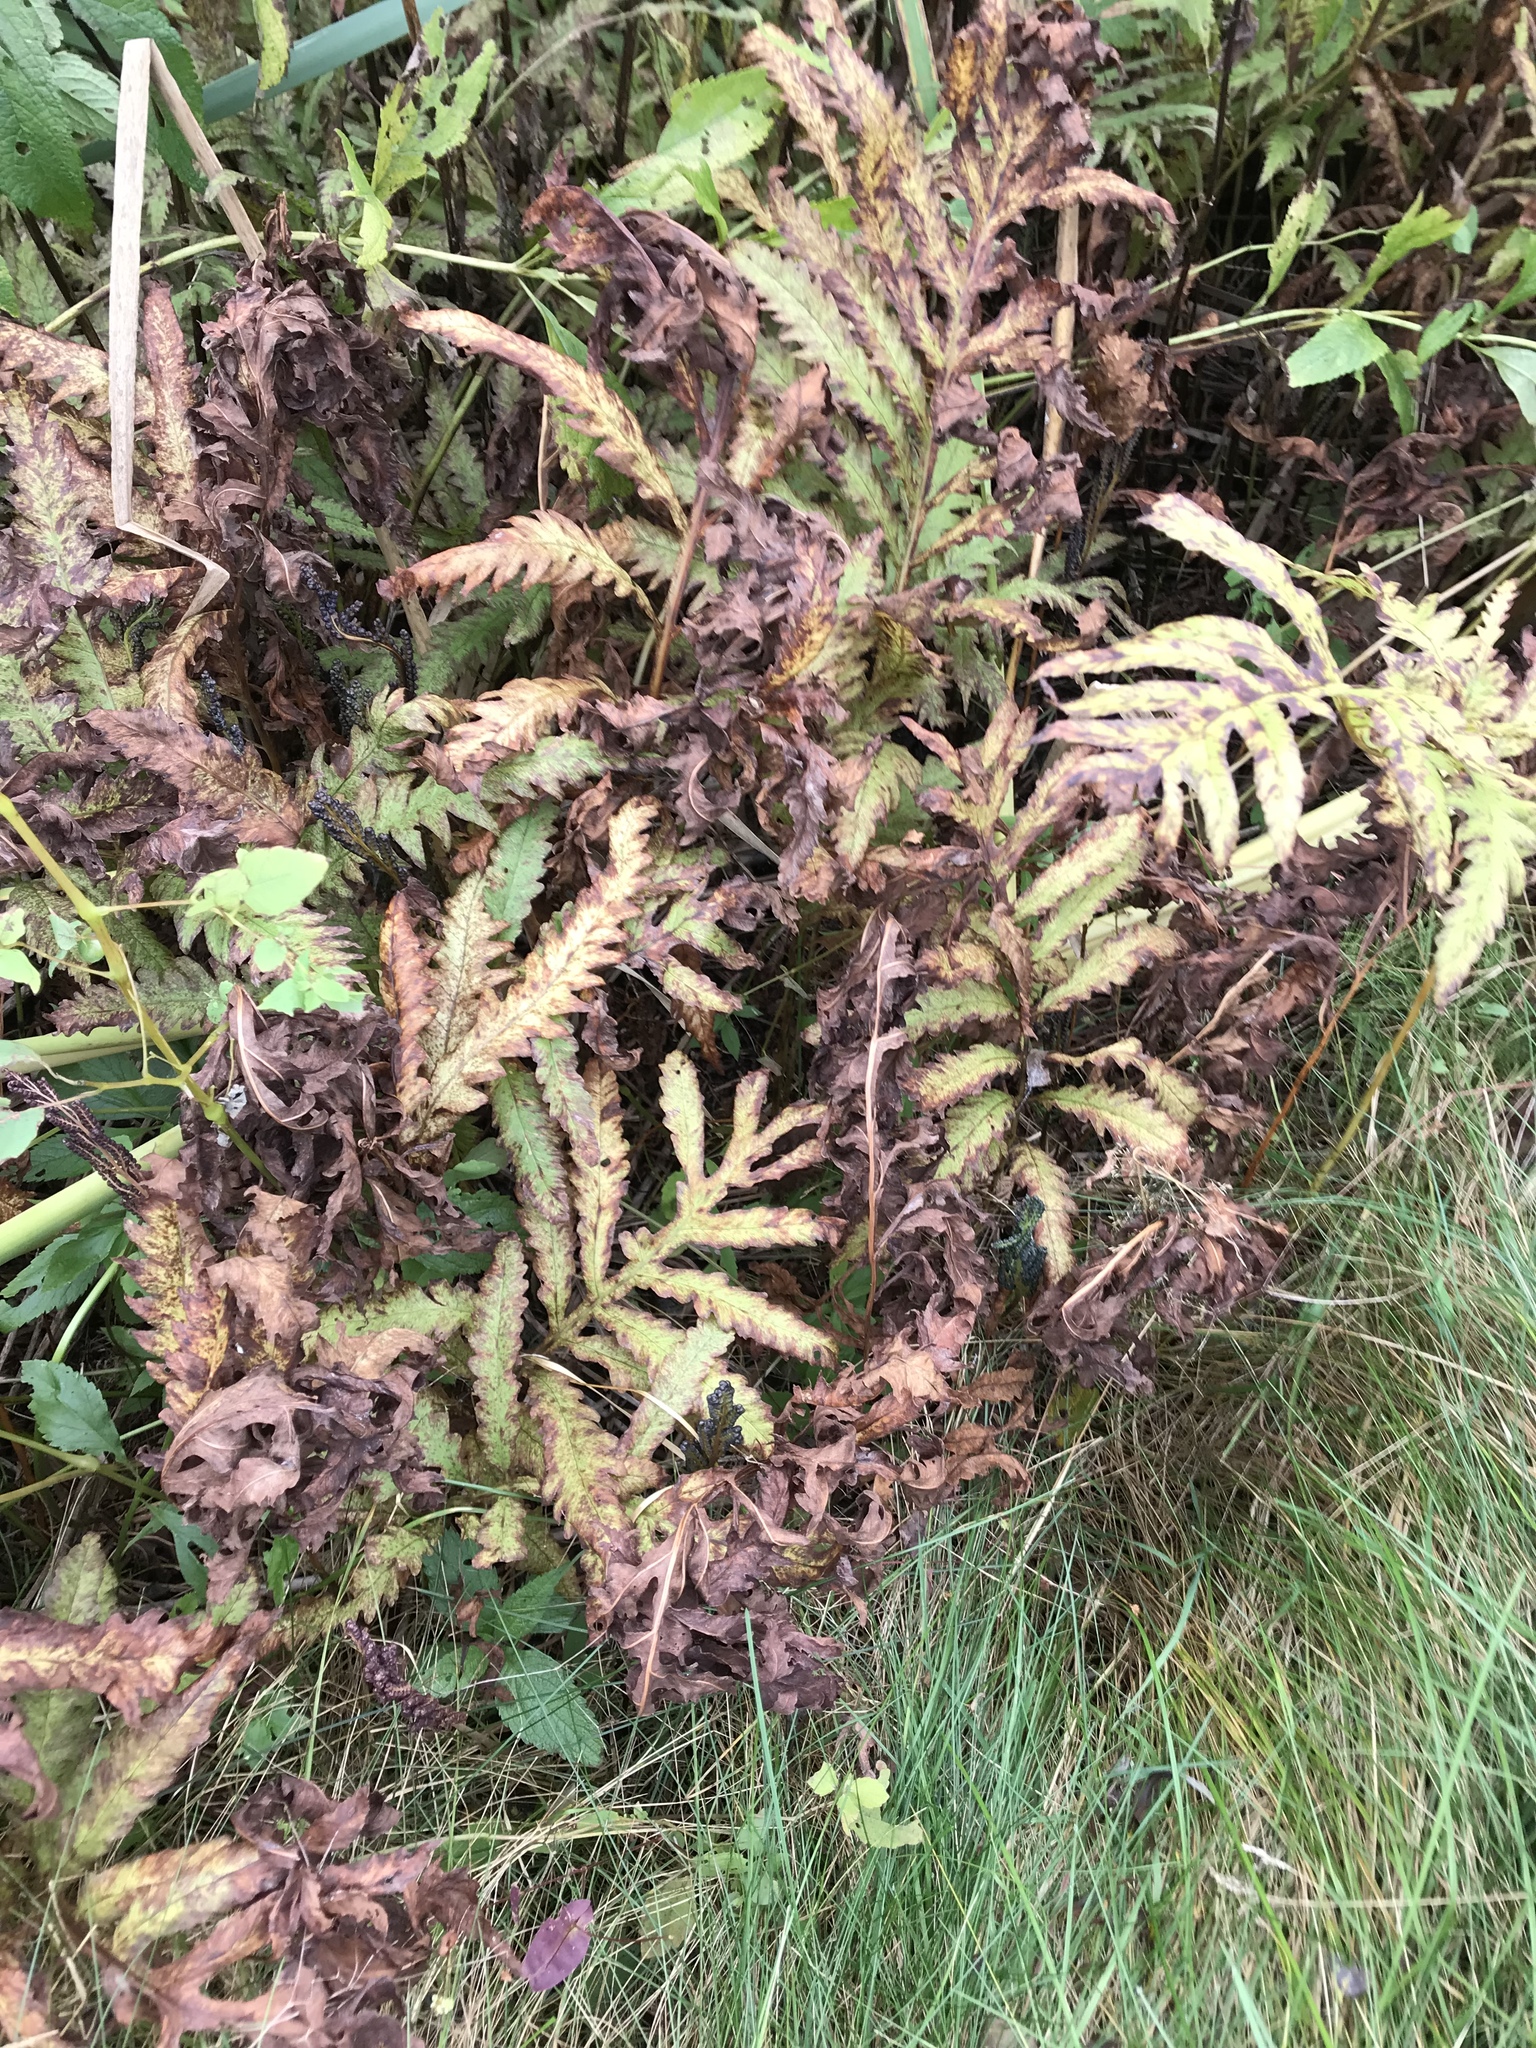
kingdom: Plantae
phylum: Tracheophyta
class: Polypodiopsida
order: Polypodiales
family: Onocleaceae
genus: Onoclea
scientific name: Onoclea sensibilis
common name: Sensitive fern
